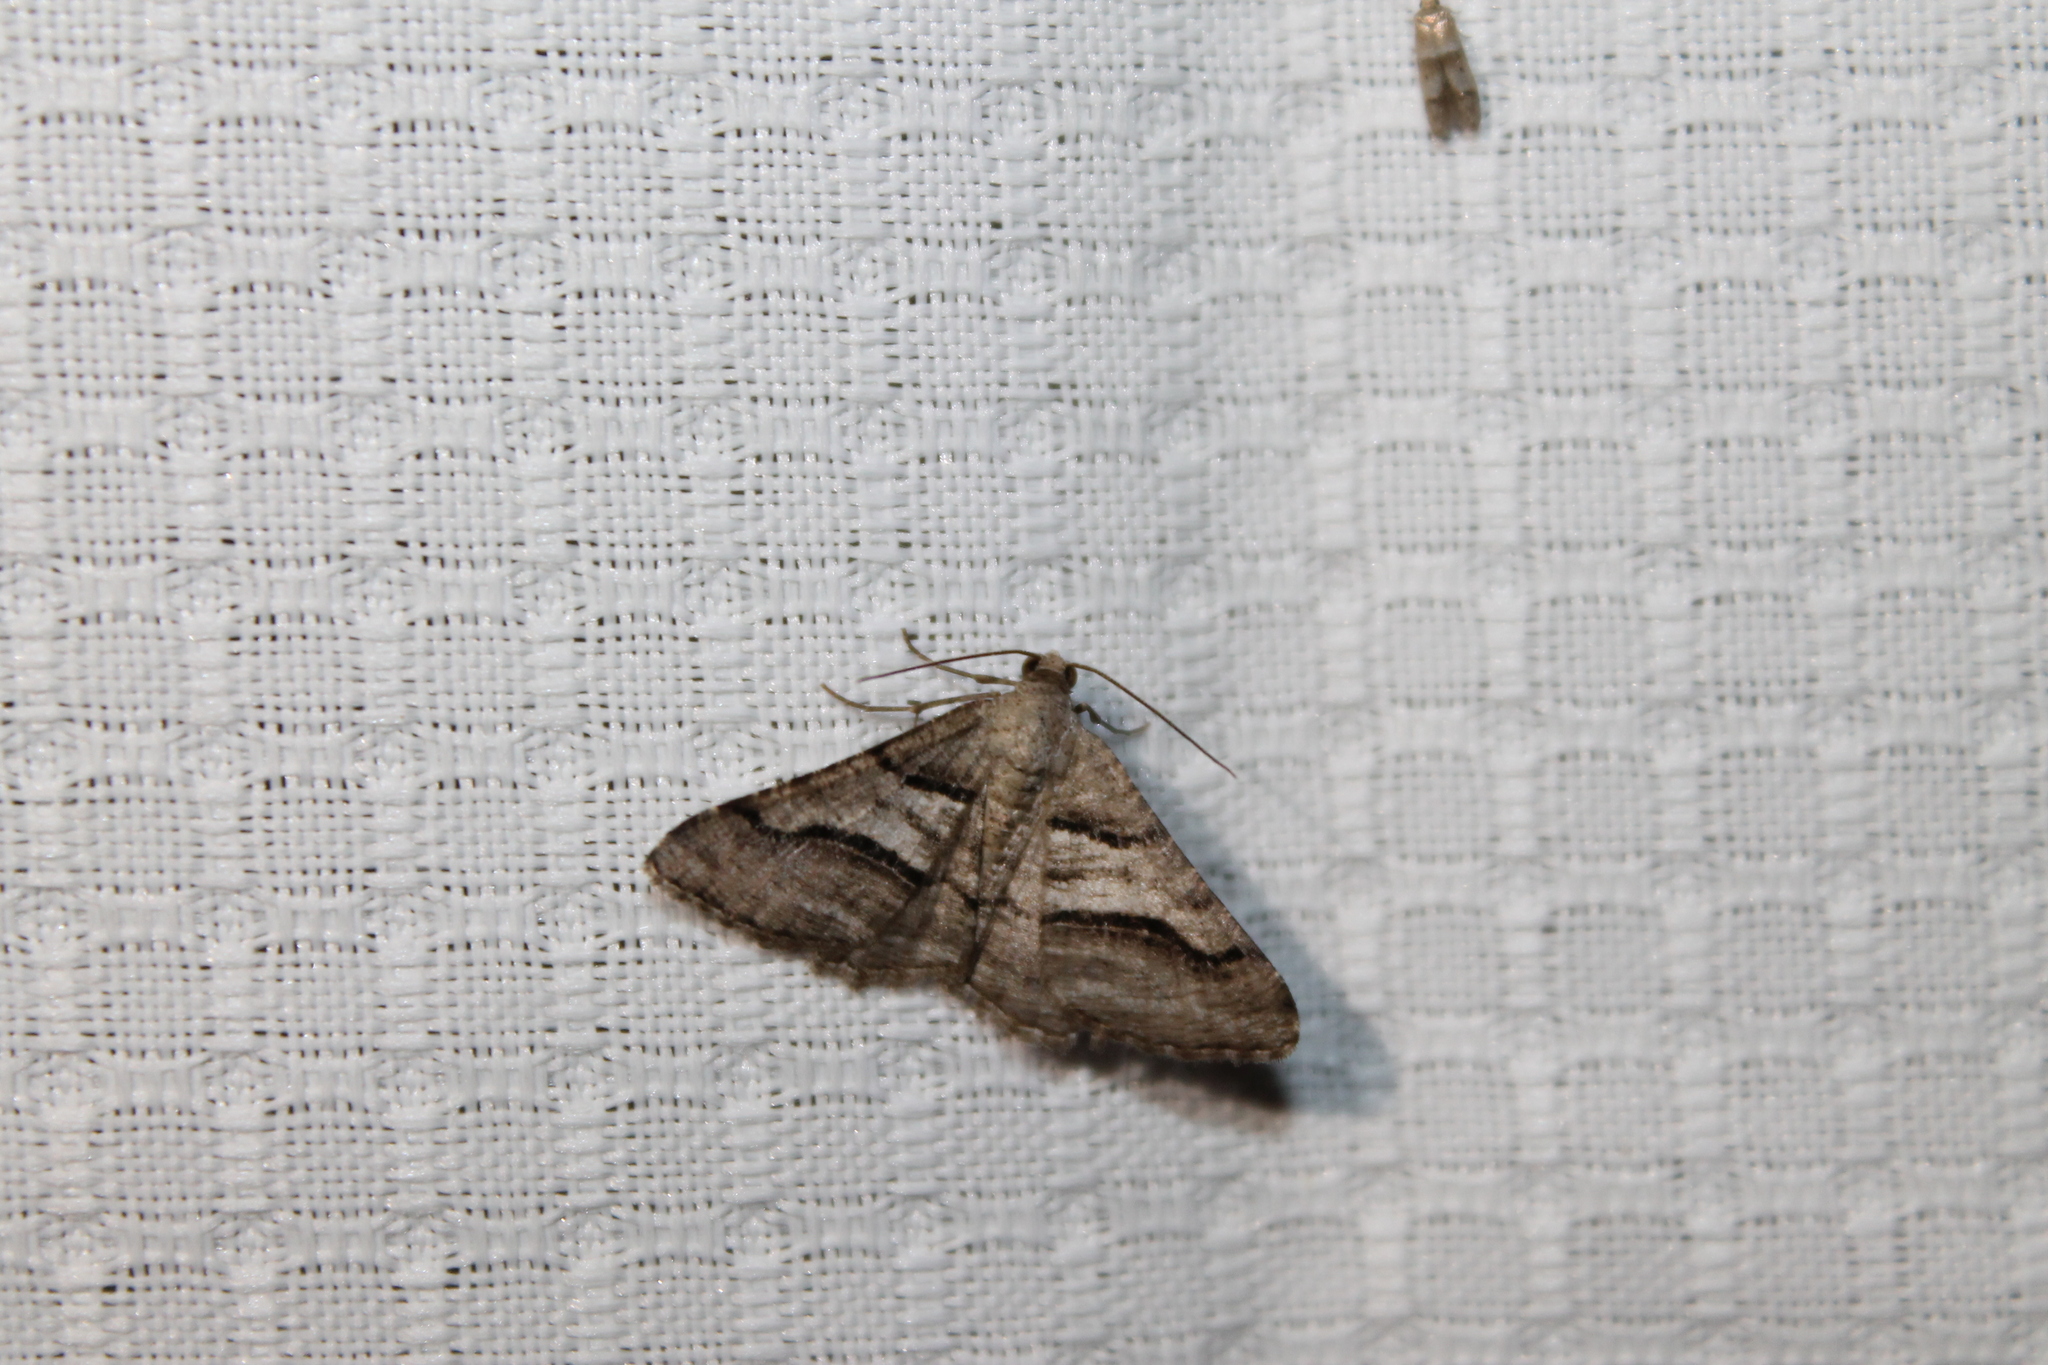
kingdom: Animalia
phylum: Arthropoda
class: Insecta
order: Lepidoptera
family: Geometridae
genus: Digrammia
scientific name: Digrammia continuata
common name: Curve-lined angle
